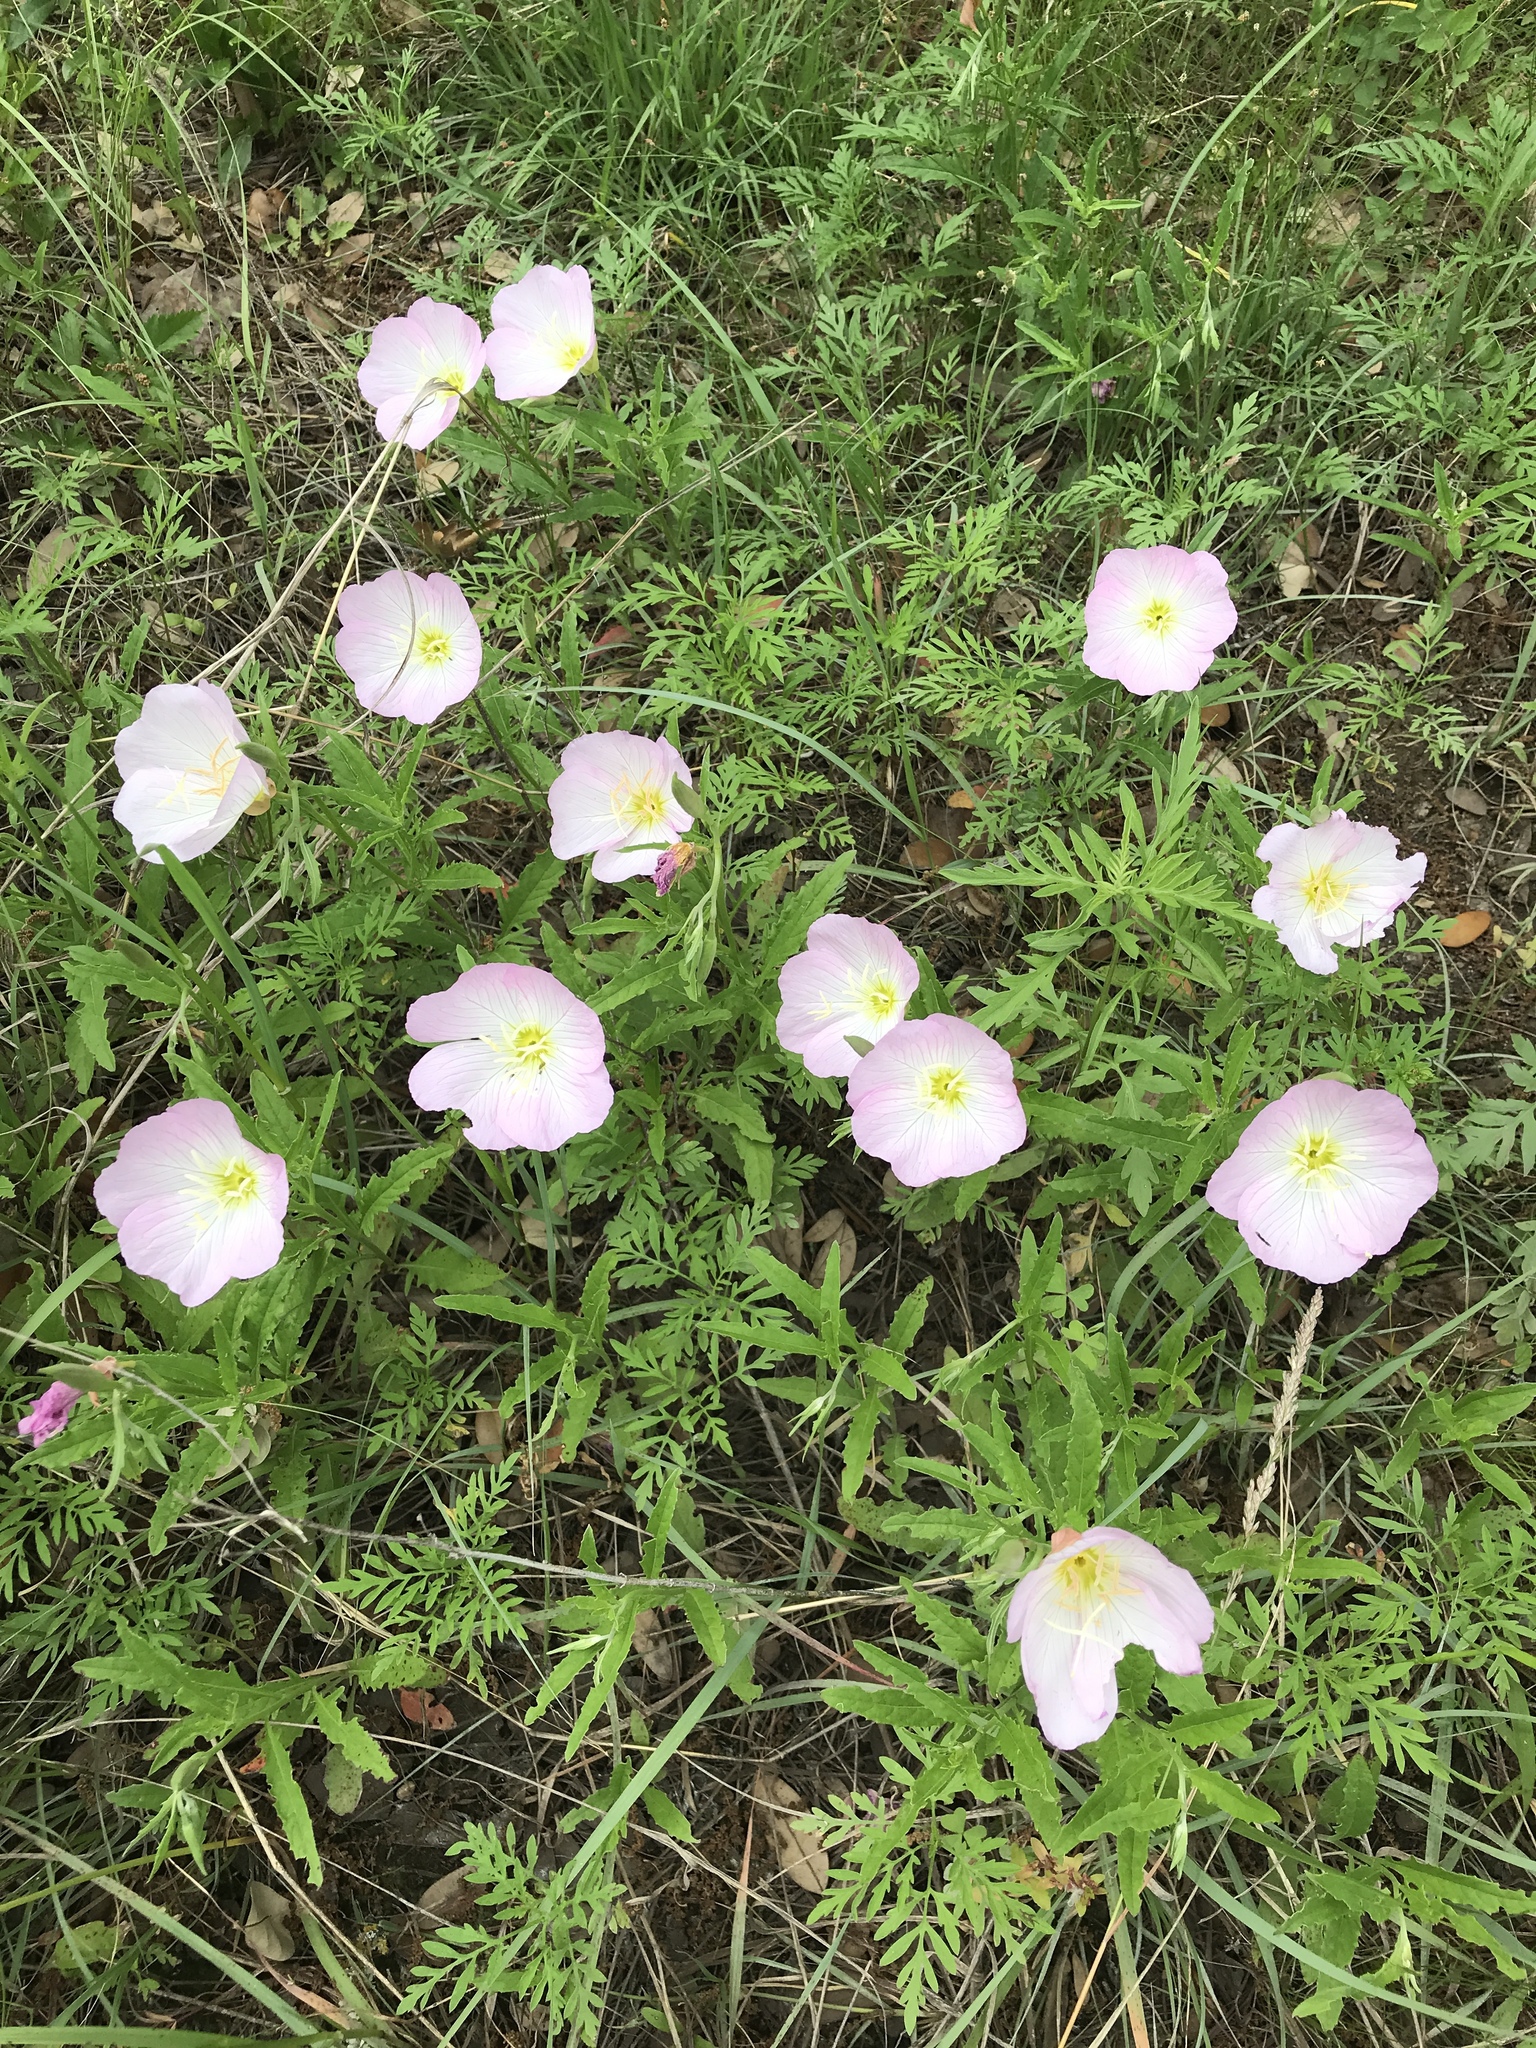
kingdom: Plantae
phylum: Tracheophyta
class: Magnoliopsida
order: Myrtales
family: Onagraceae
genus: Oenothera
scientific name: Oenothera speciosa
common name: White evening-primrose
